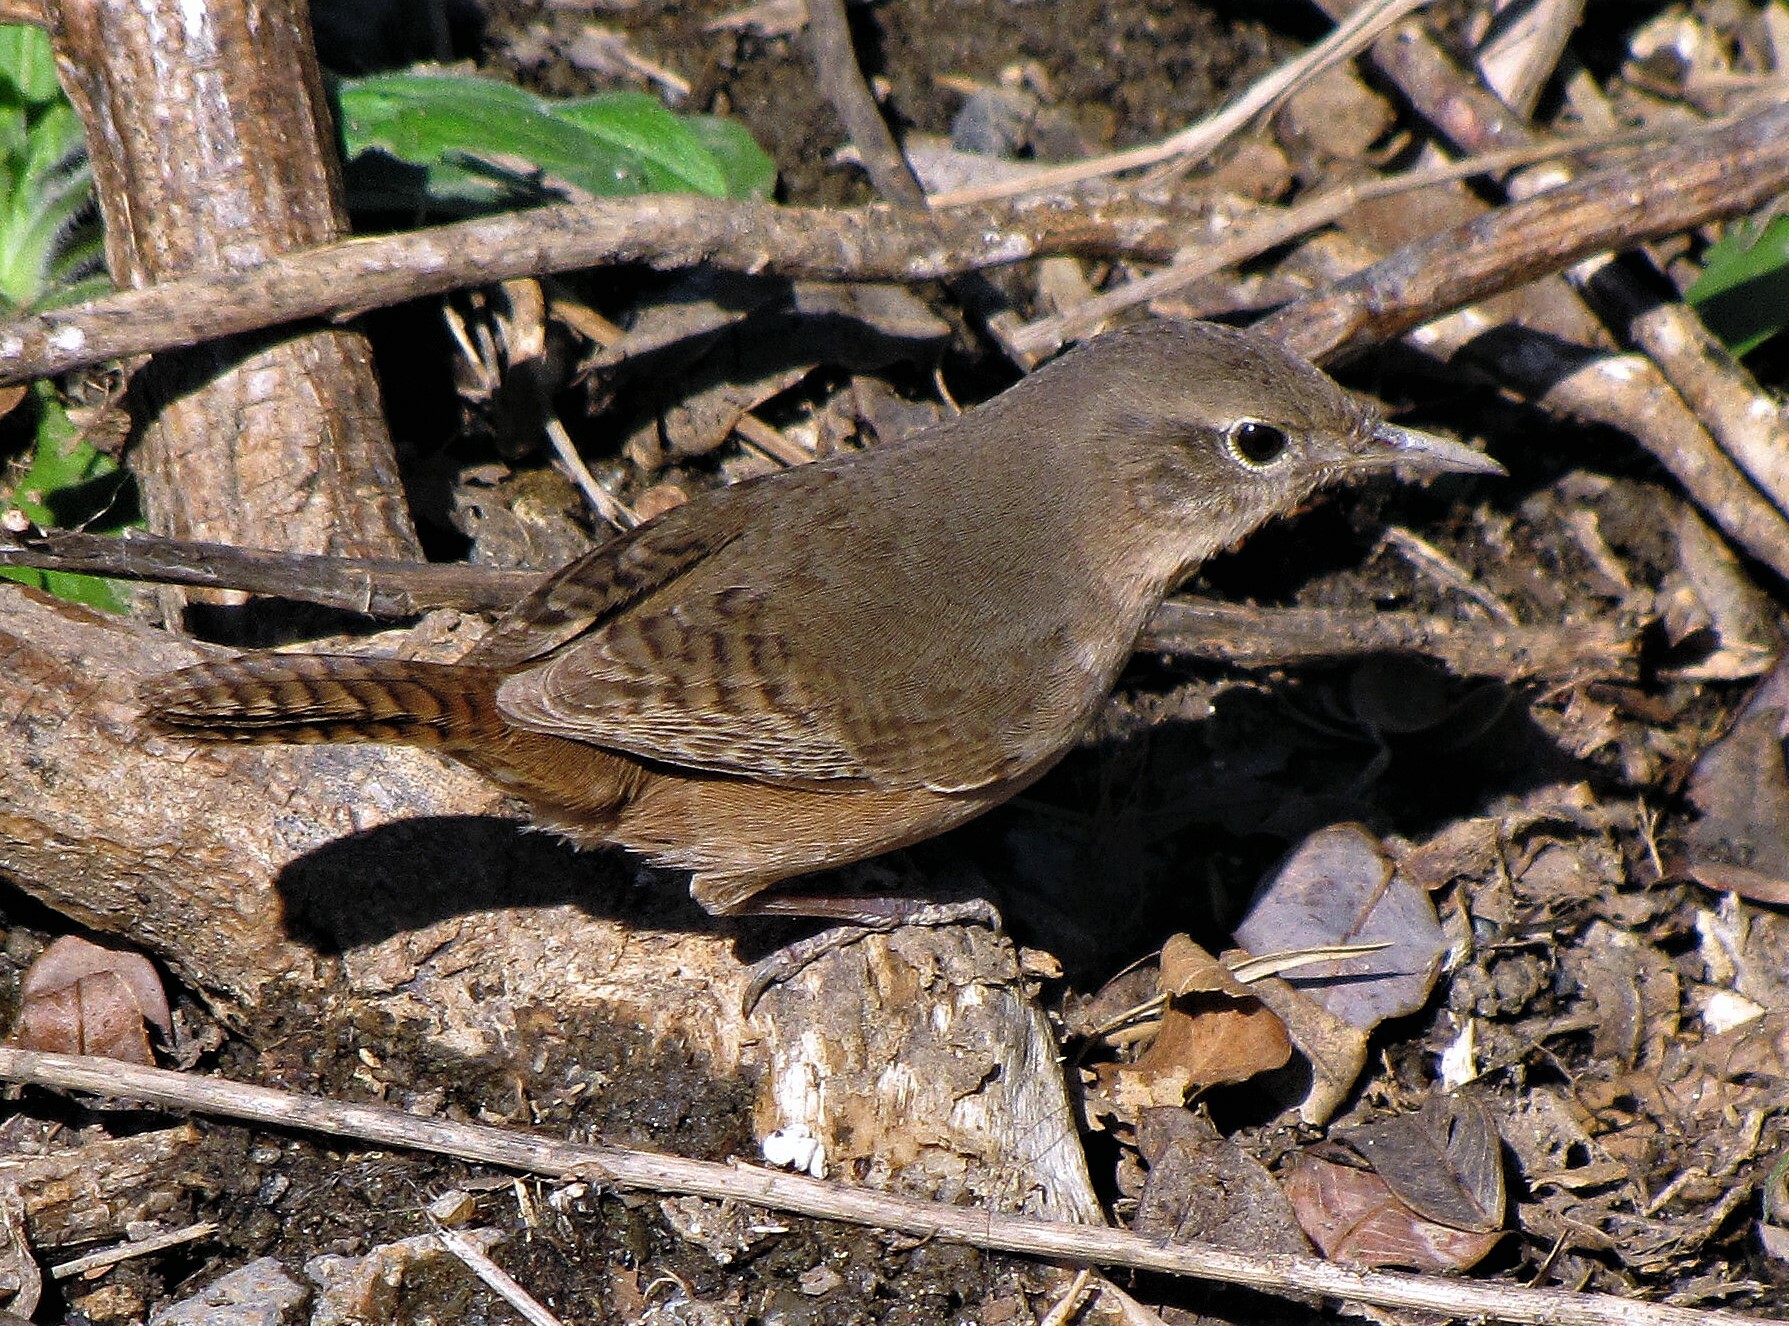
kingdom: Animalia
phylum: Chordata
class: Aves
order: Passeriformes
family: Troglodytidae
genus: Troglodytes
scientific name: Troglodytes aedon
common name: House wren
